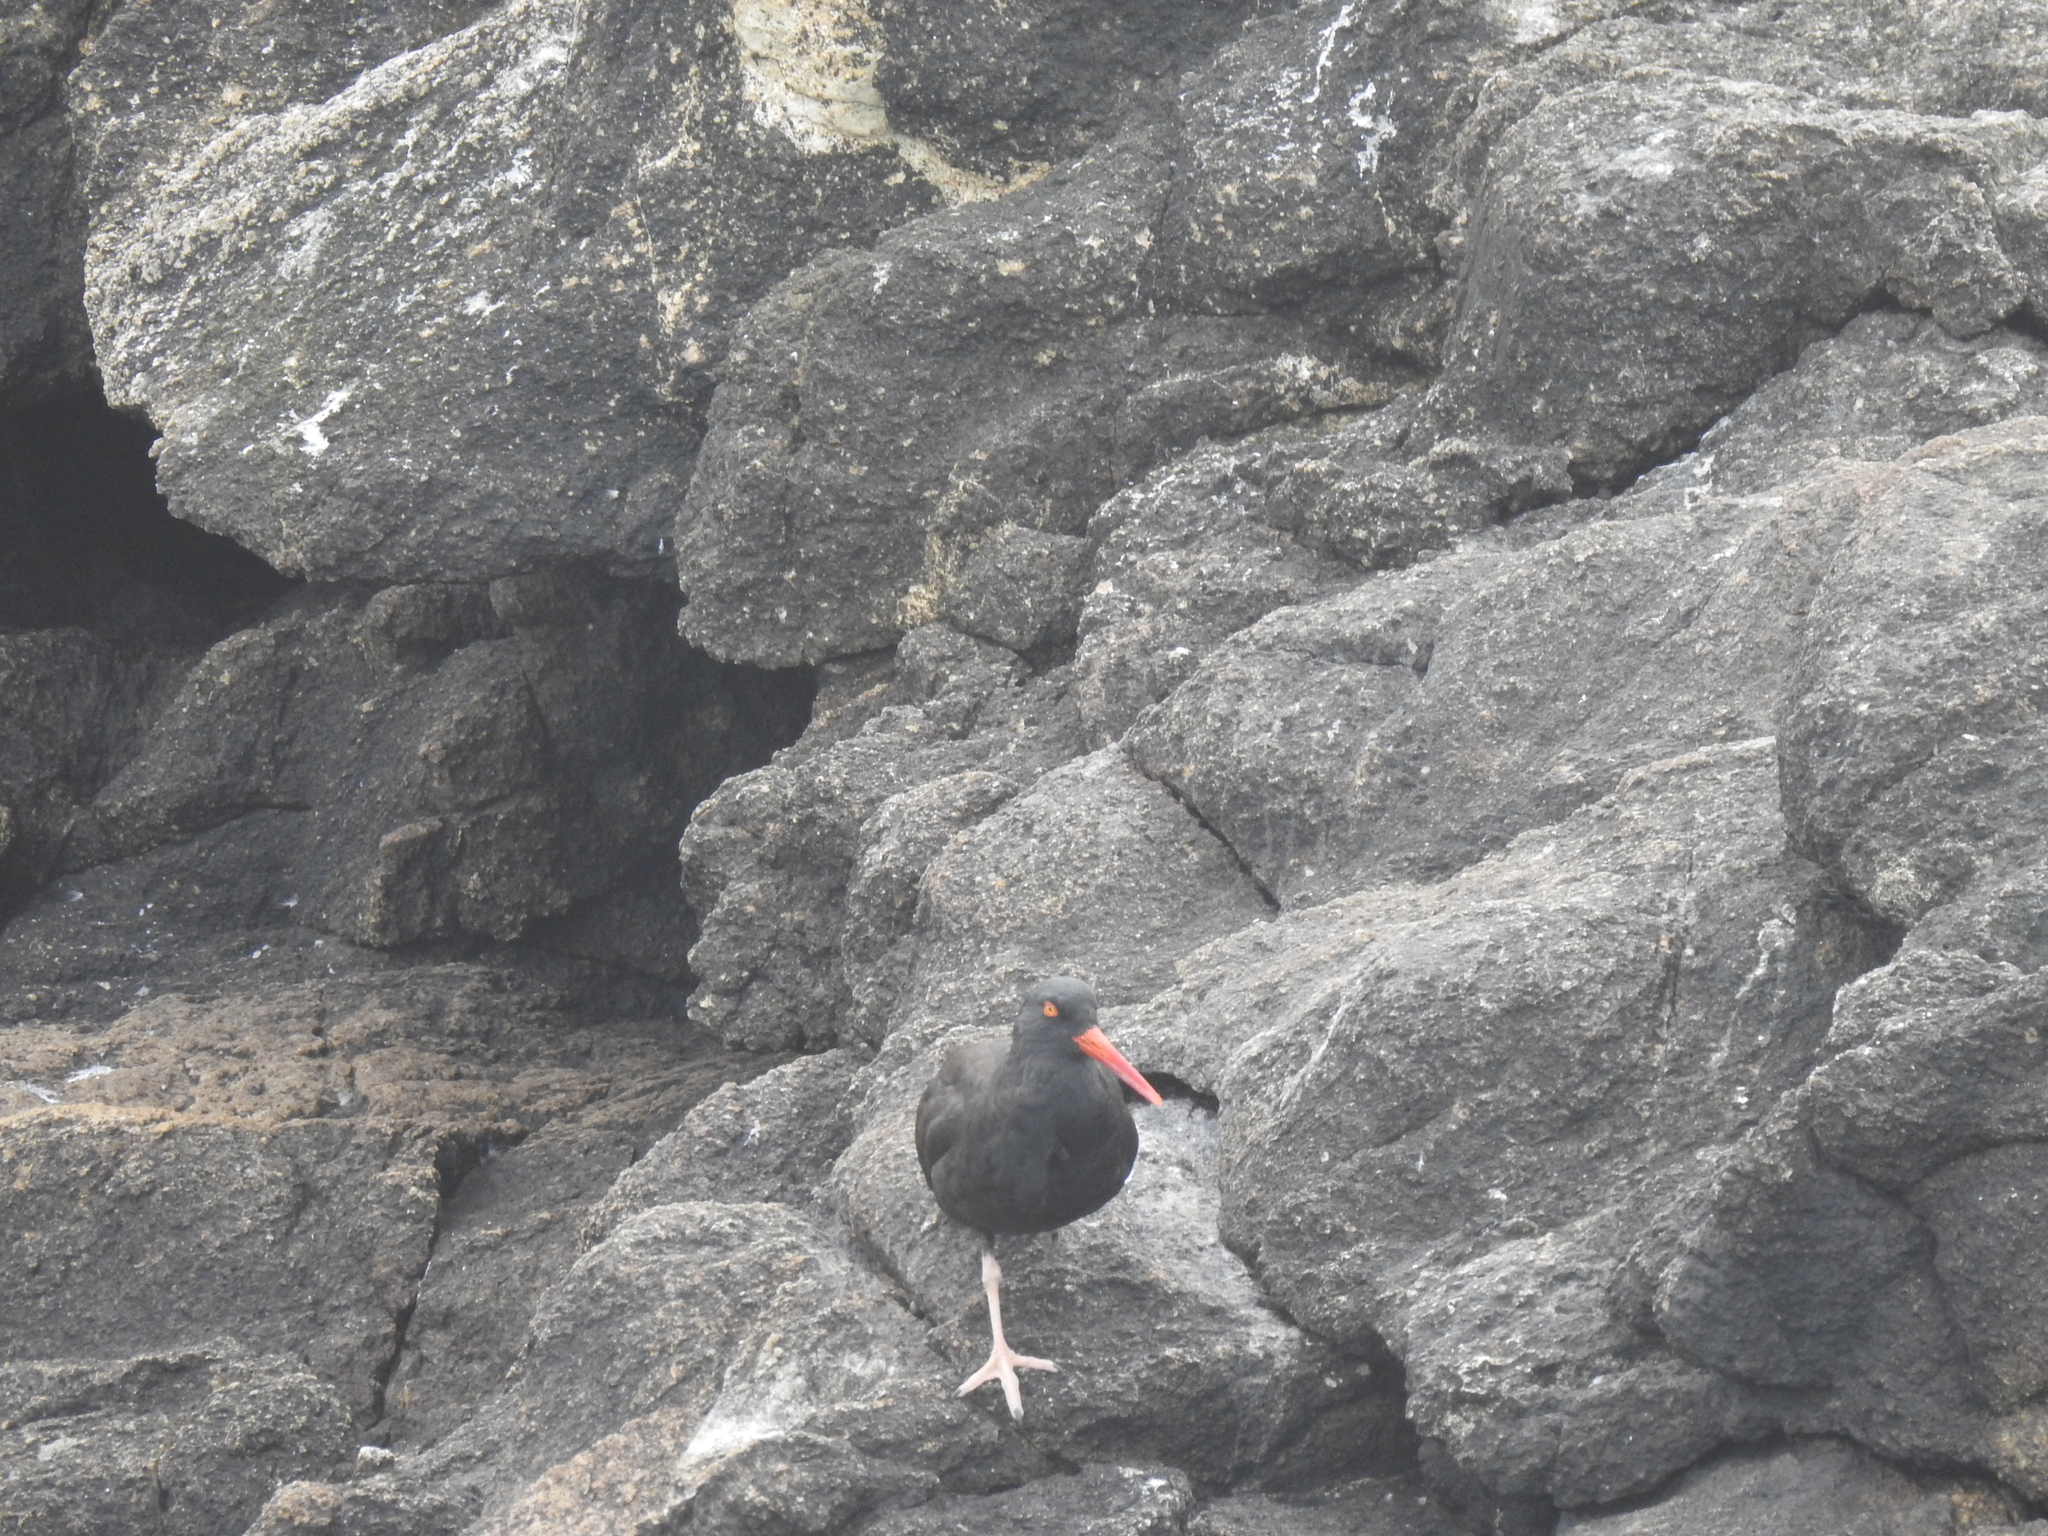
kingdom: Animalia
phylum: Chordata
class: Aves
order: Charadriiformes
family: Haematopodidae
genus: Haematopus
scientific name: Haematopus bachmani
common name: Black oystercatcher
